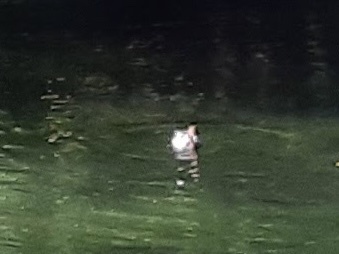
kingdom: Animalia
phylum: Chordata
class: Aves
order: Anseriformes
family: Anatidae
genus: Aythya
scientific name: Aythya ferina
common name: Common pochard
